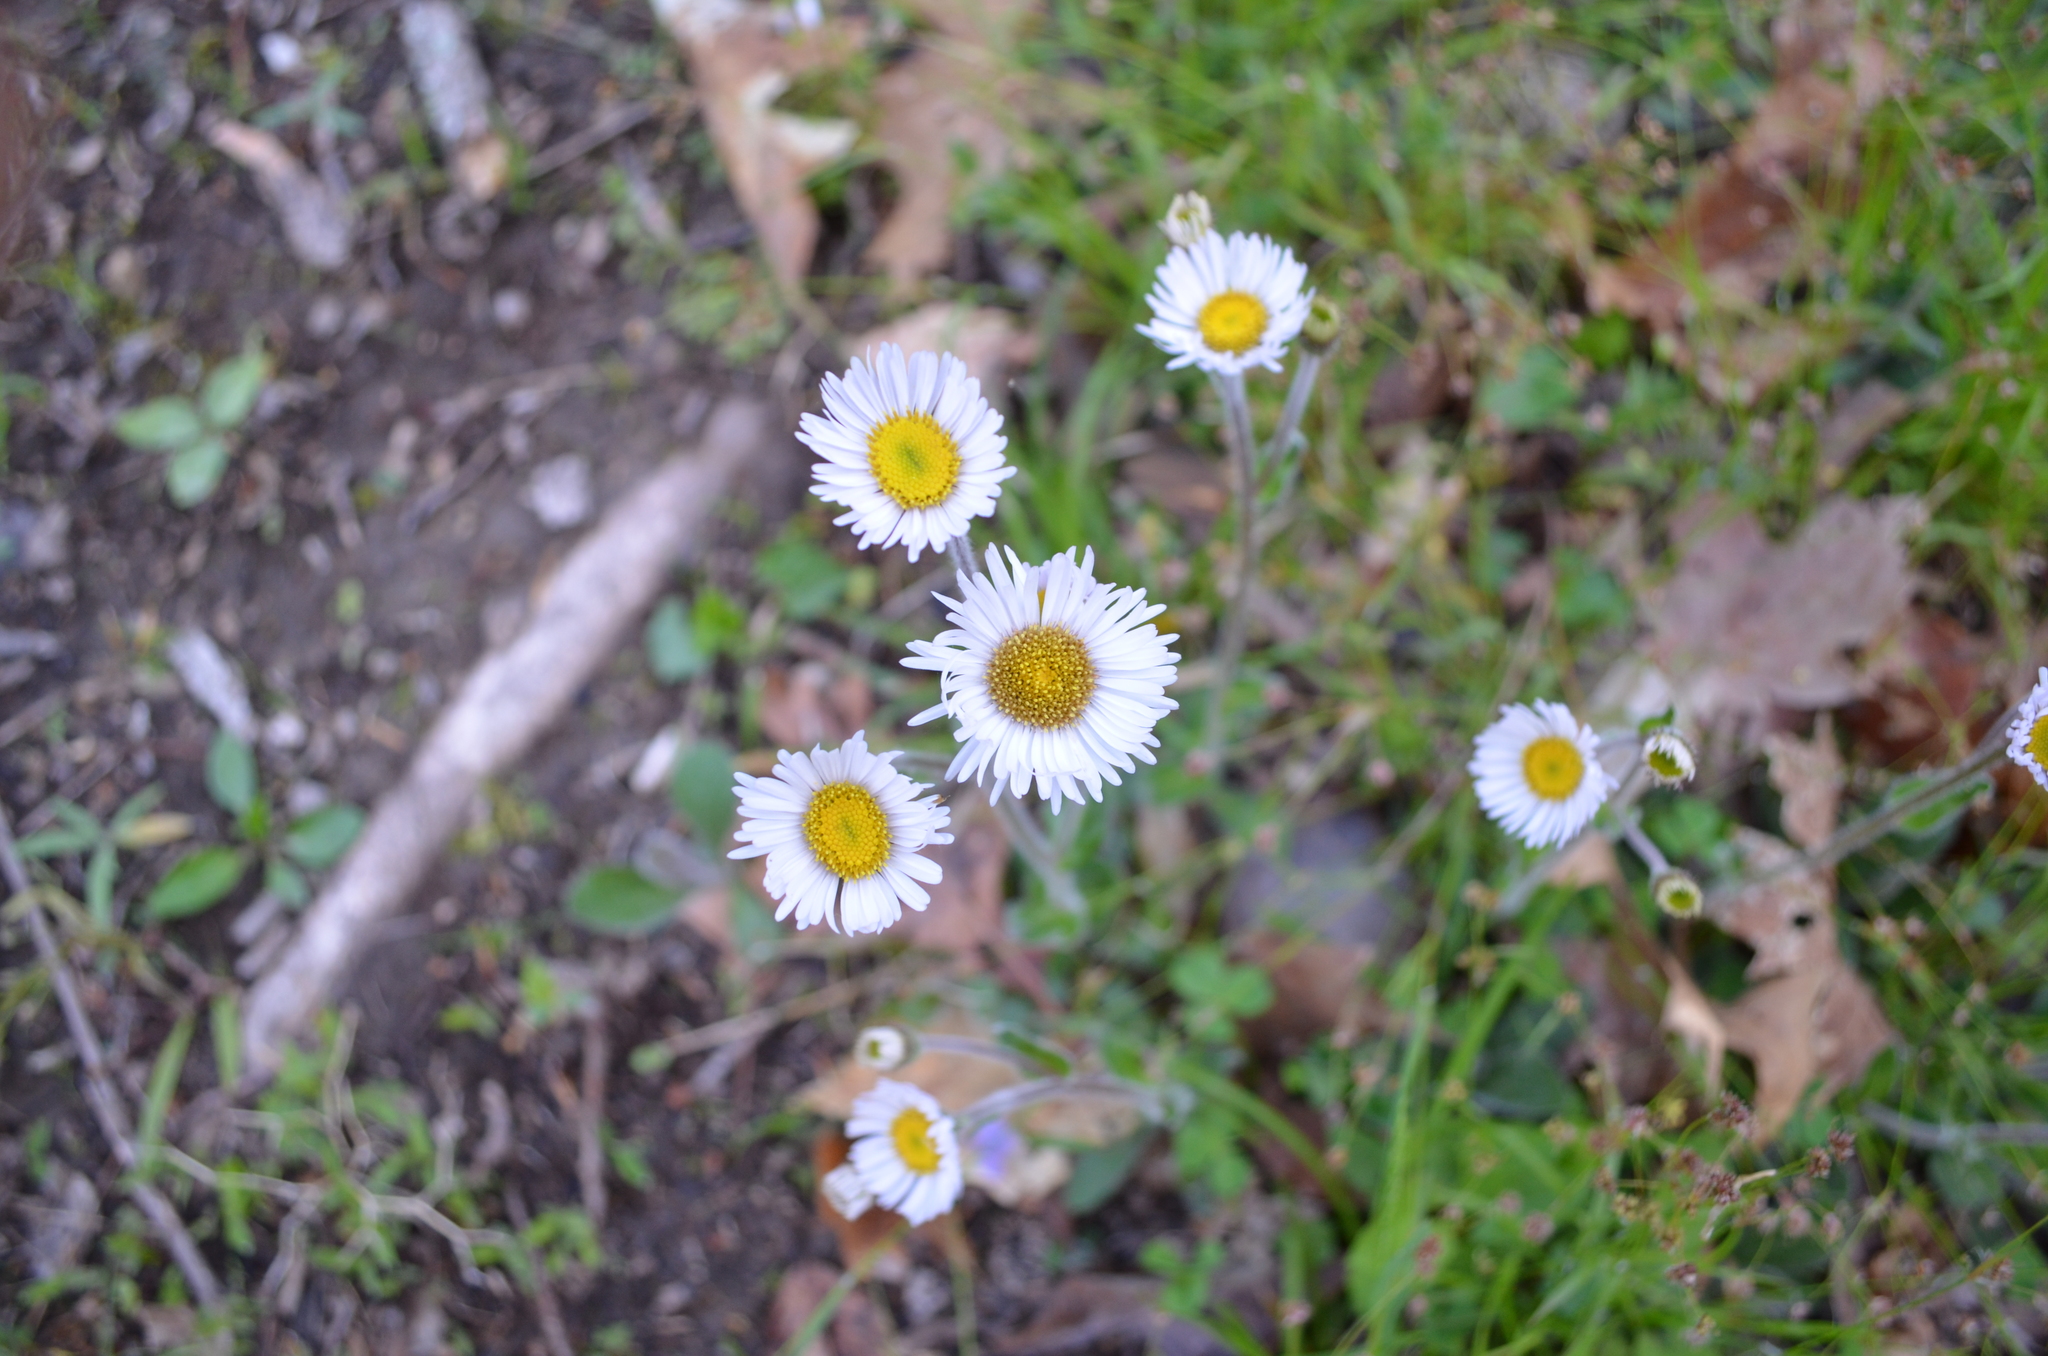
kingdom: Plantae
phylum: Tracheophyta
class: Magnoliopsida
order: Asterales
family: Asteraceae
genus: Erigeron
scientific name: Erigeron pulchellus
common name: Hairy fleabane
